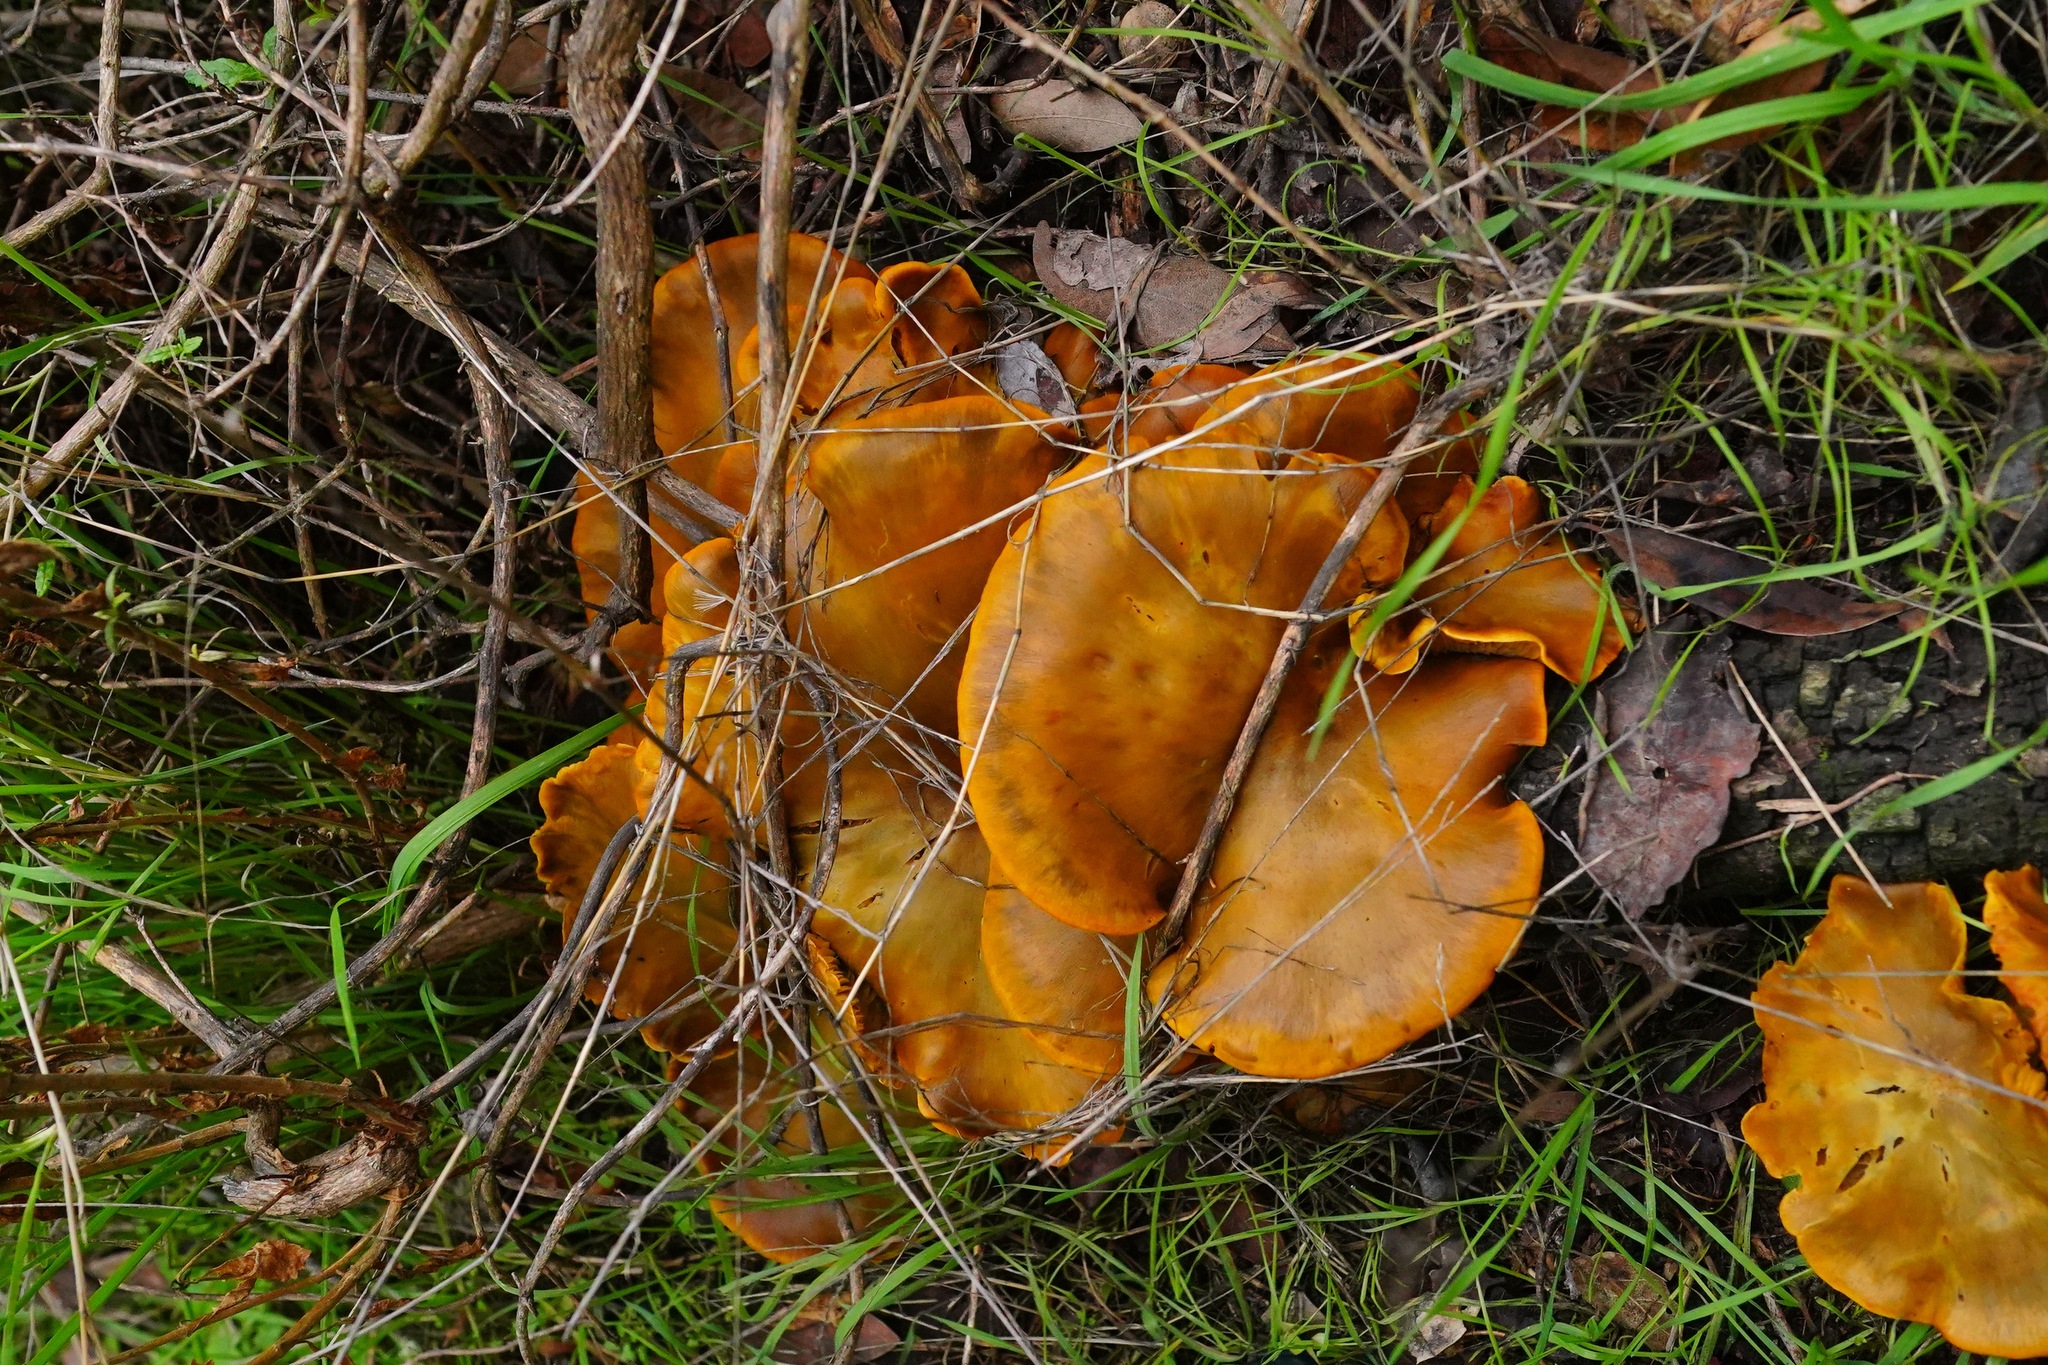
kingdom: Fungi
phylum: Basidiomycota
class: Agaricomycetes
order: Agaricales
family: Omphalotaceae
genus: Omphalotus
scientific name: Omphalotus olivascens
